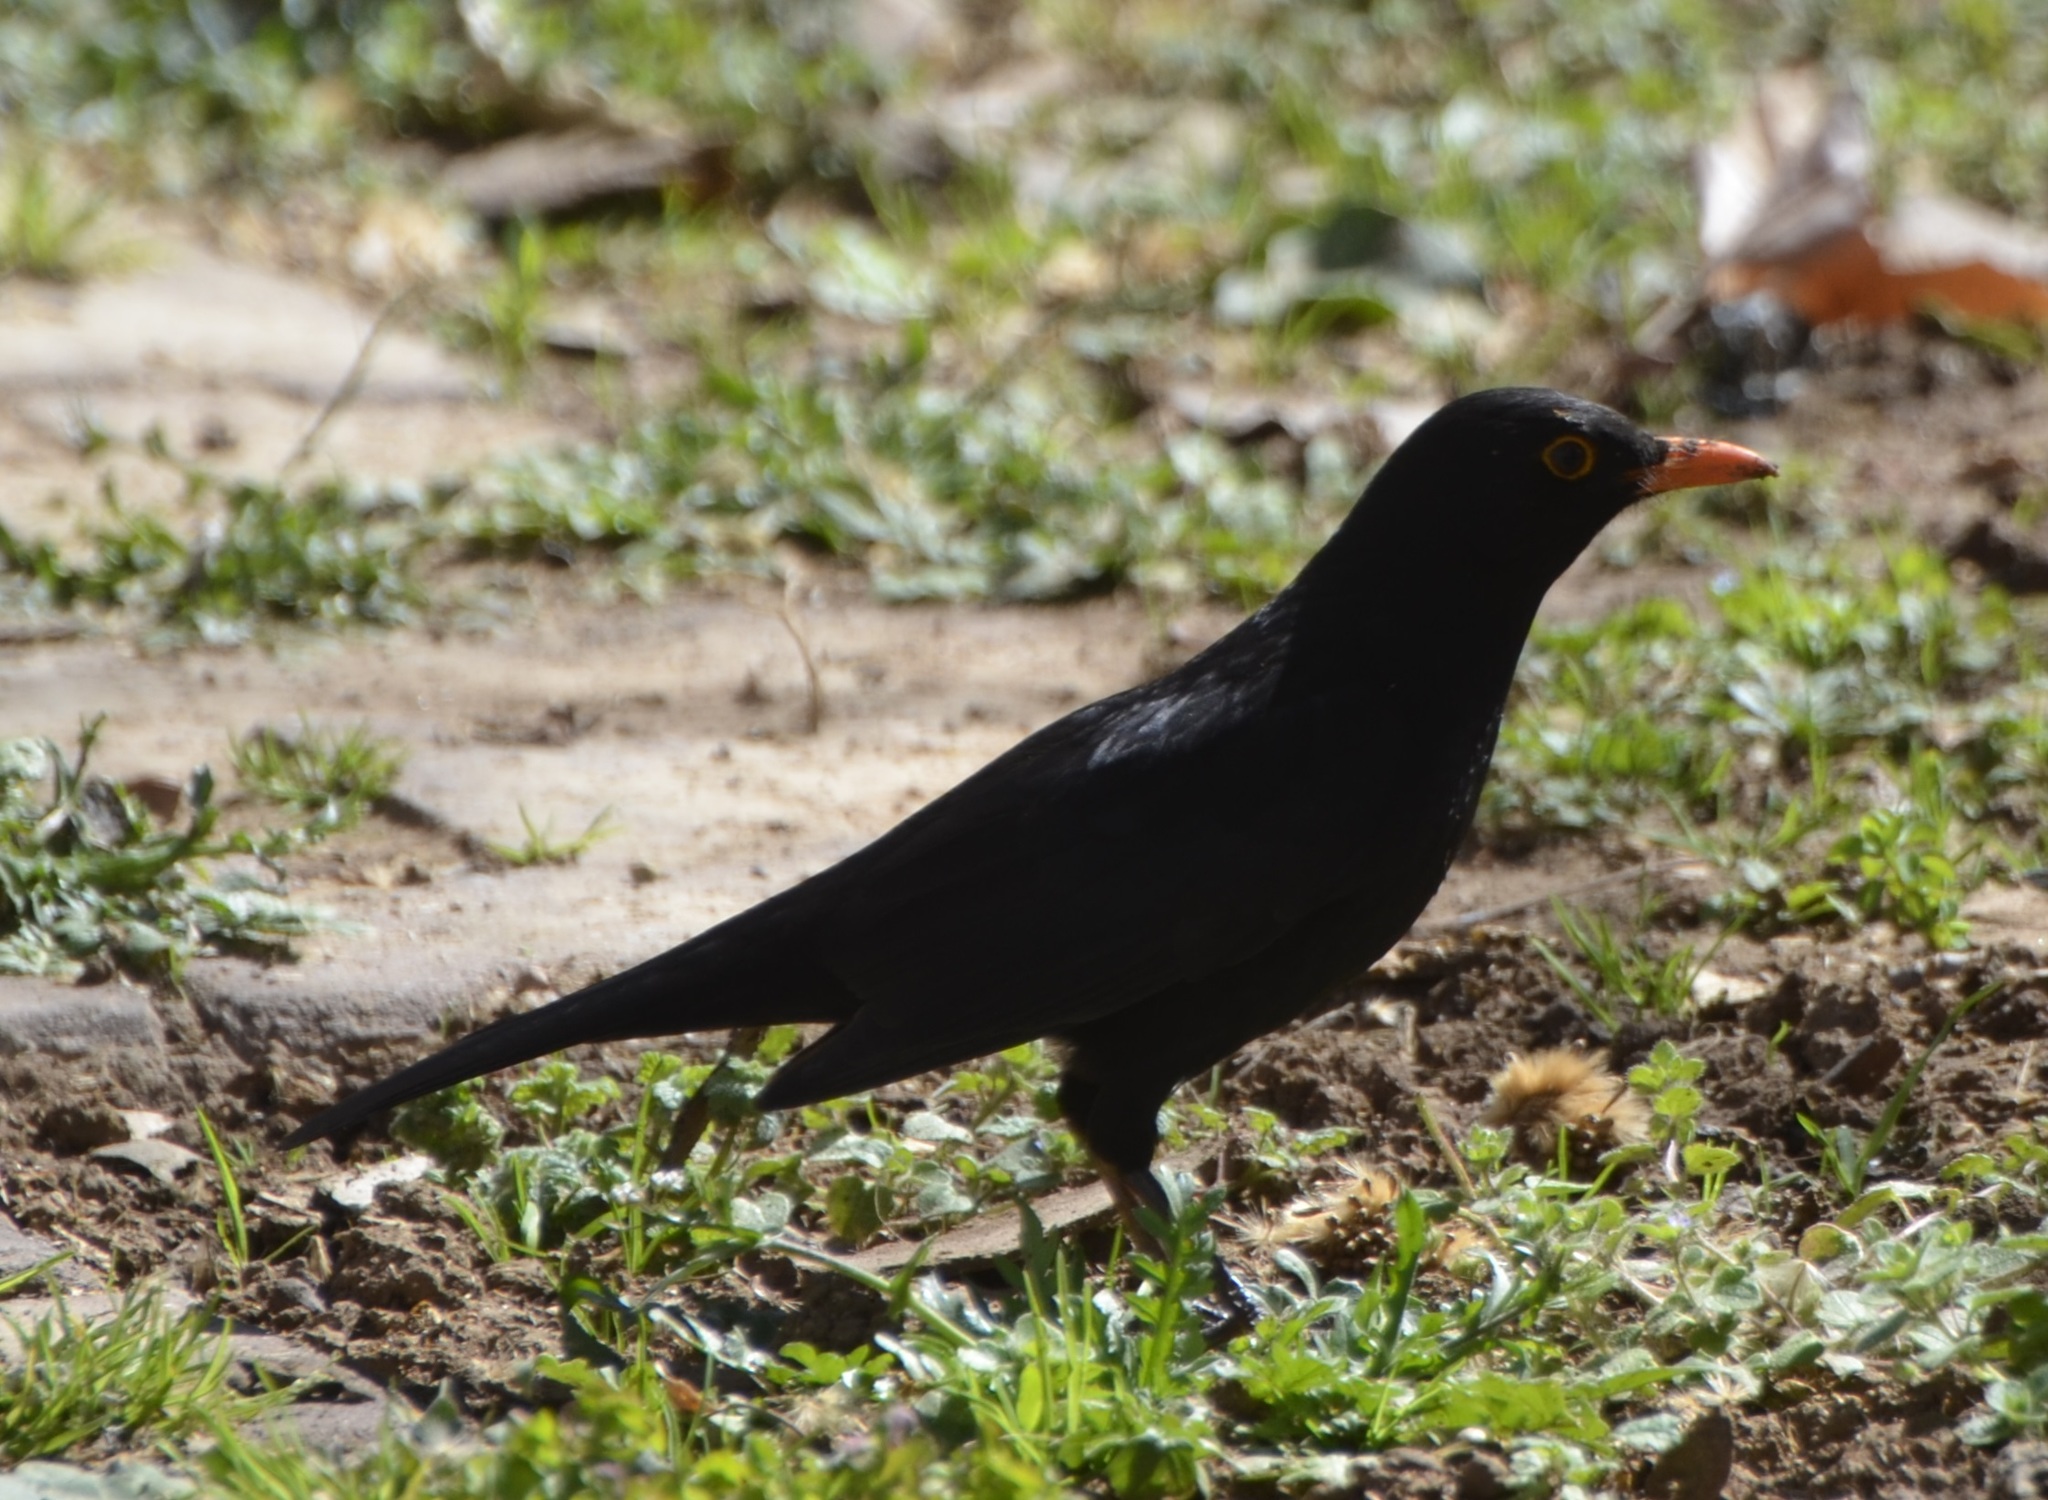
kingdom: Animalia
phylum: Chordata
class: Aves
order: Passeriformes
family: Turdidae
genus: Turdus
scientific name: Turdus merula
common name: Common blackbird
